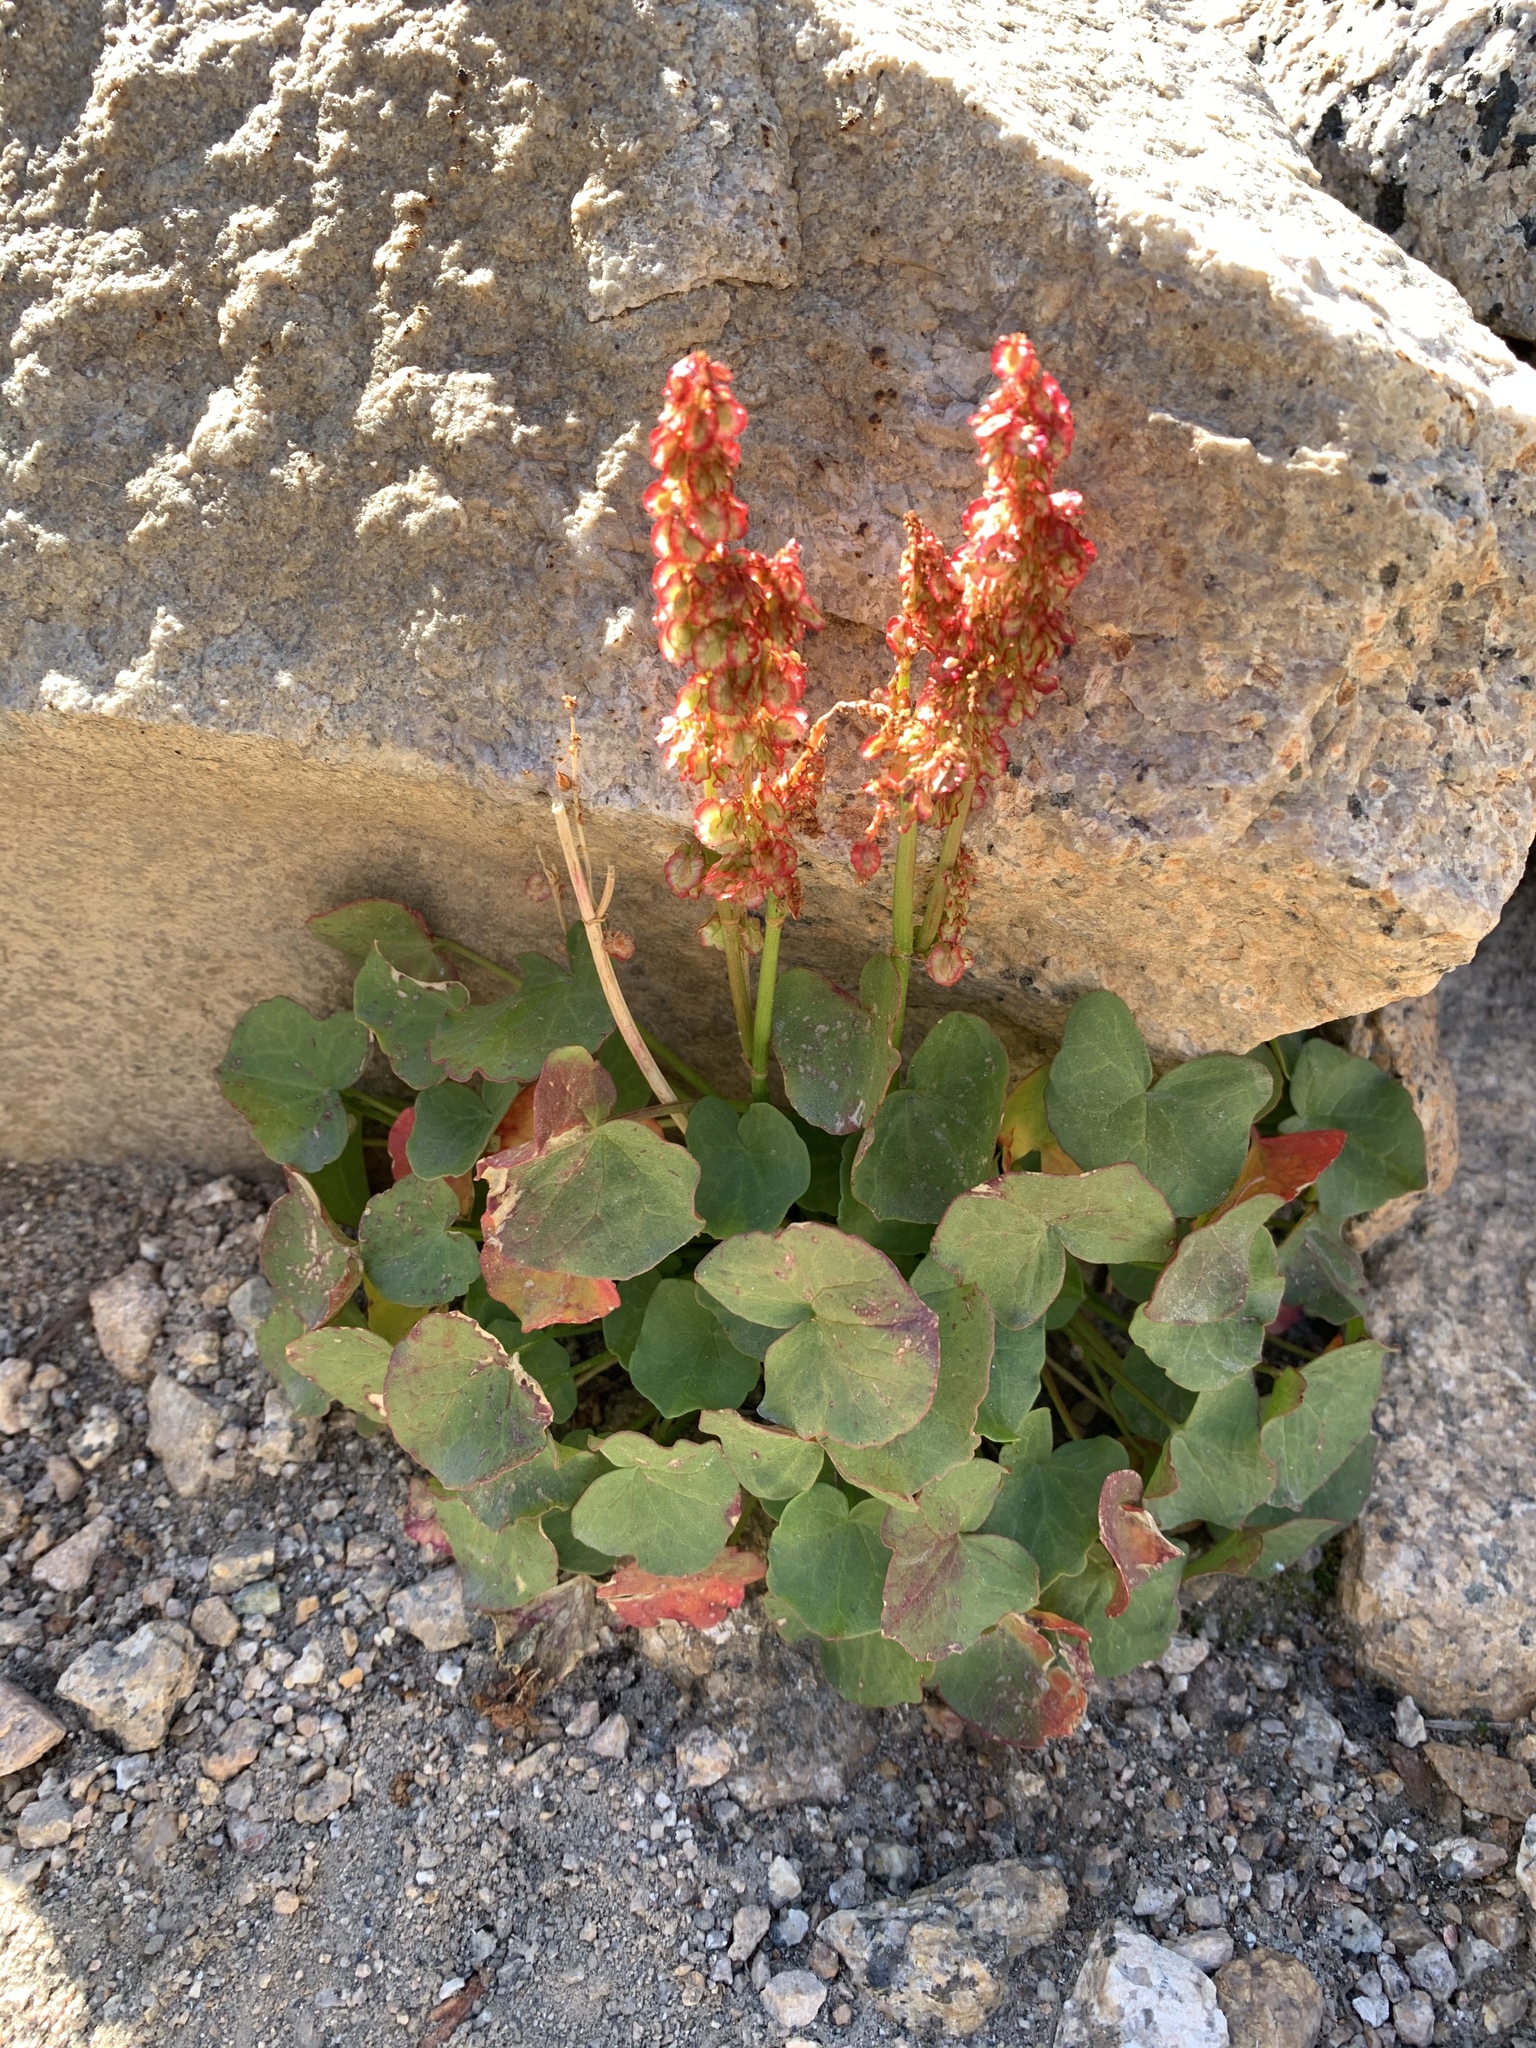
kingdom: Plantae
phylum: Tracheophyta
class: Magnoliopsida
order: Caryophyllales
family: Polygonaceae
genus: Oxyria
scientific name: Oxyria digyna
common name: Alpine mountain-sorrel
